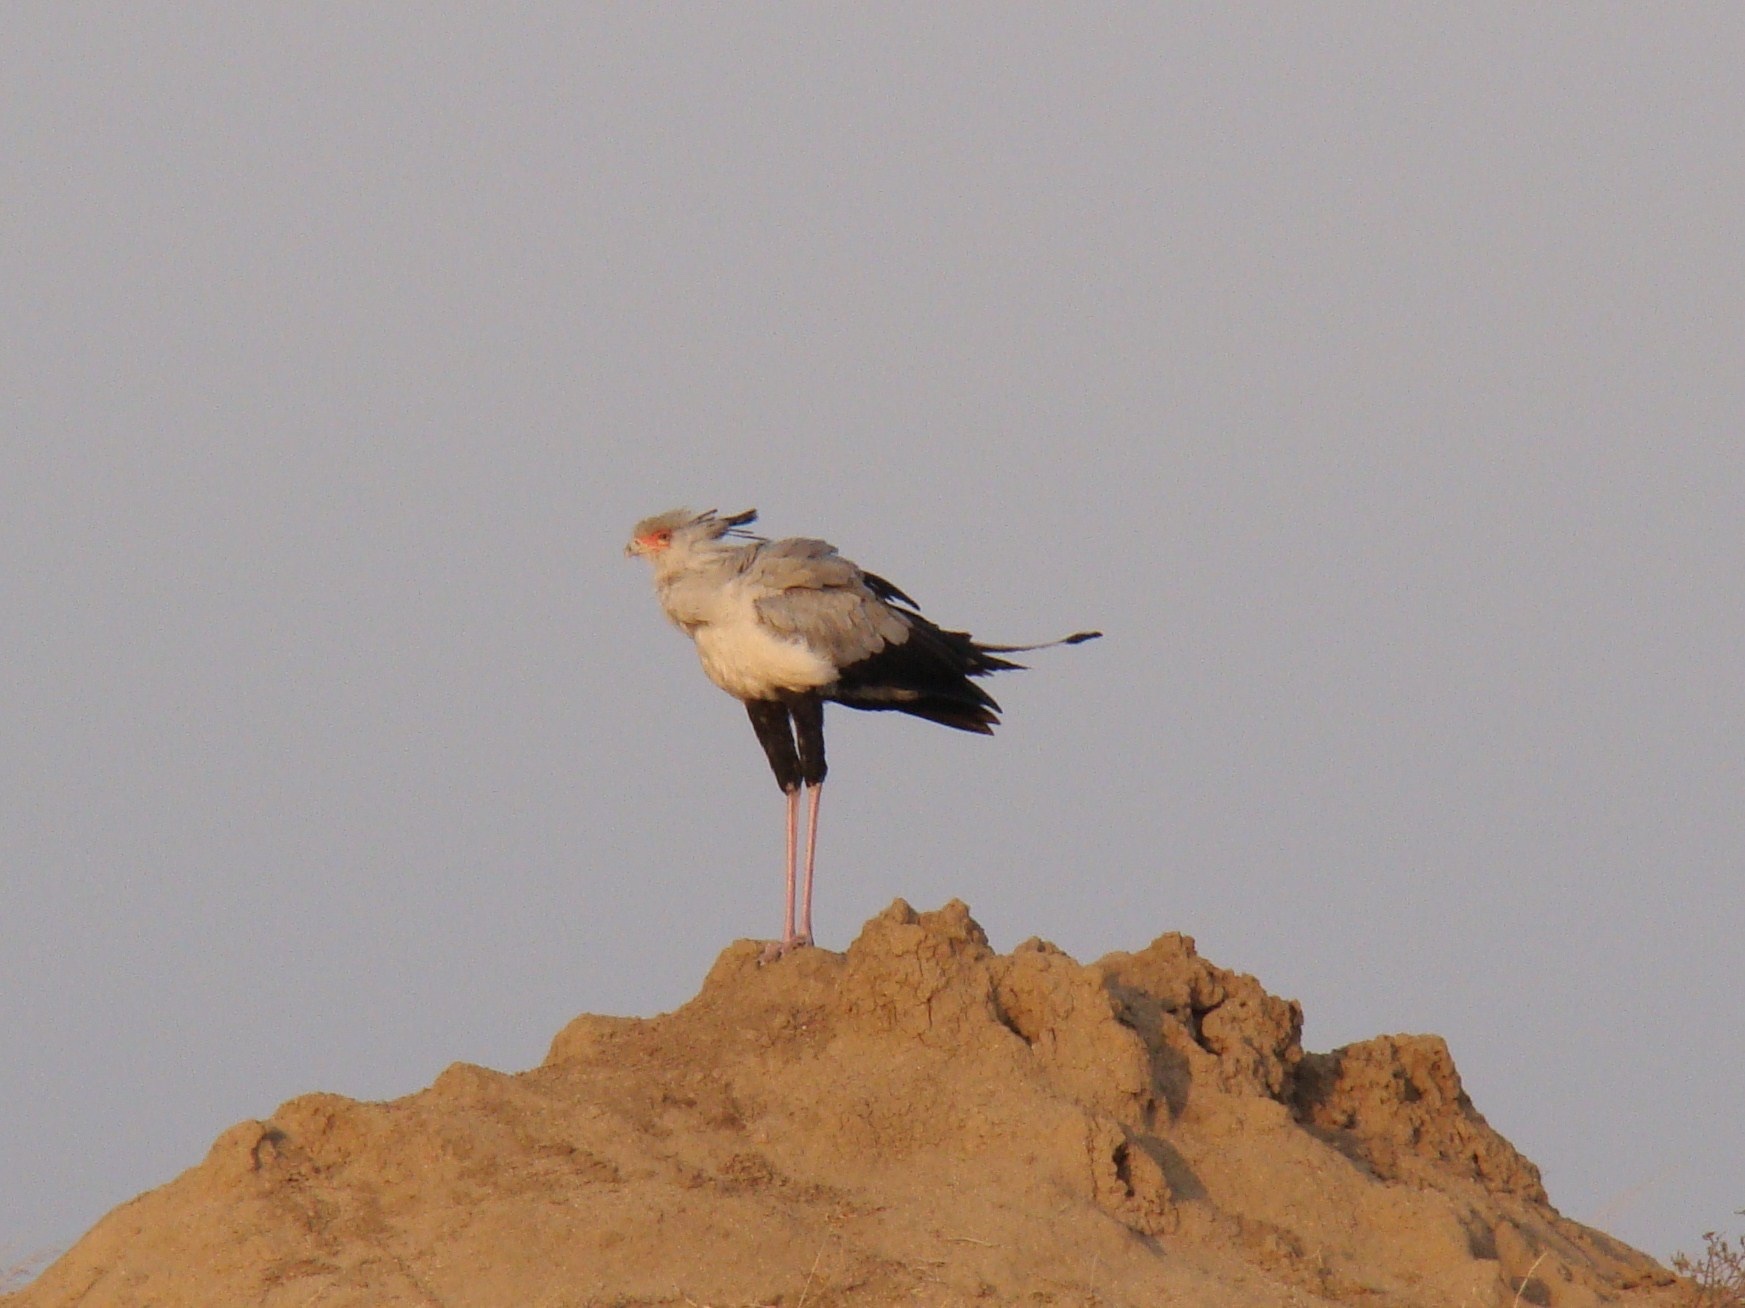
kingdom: Animalia
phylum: Chordata
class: Aves
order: Accipitriformes
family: Sagittariidae
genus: Sagittarius
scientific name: Sagittarius serpentarius
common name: Secretarybird
